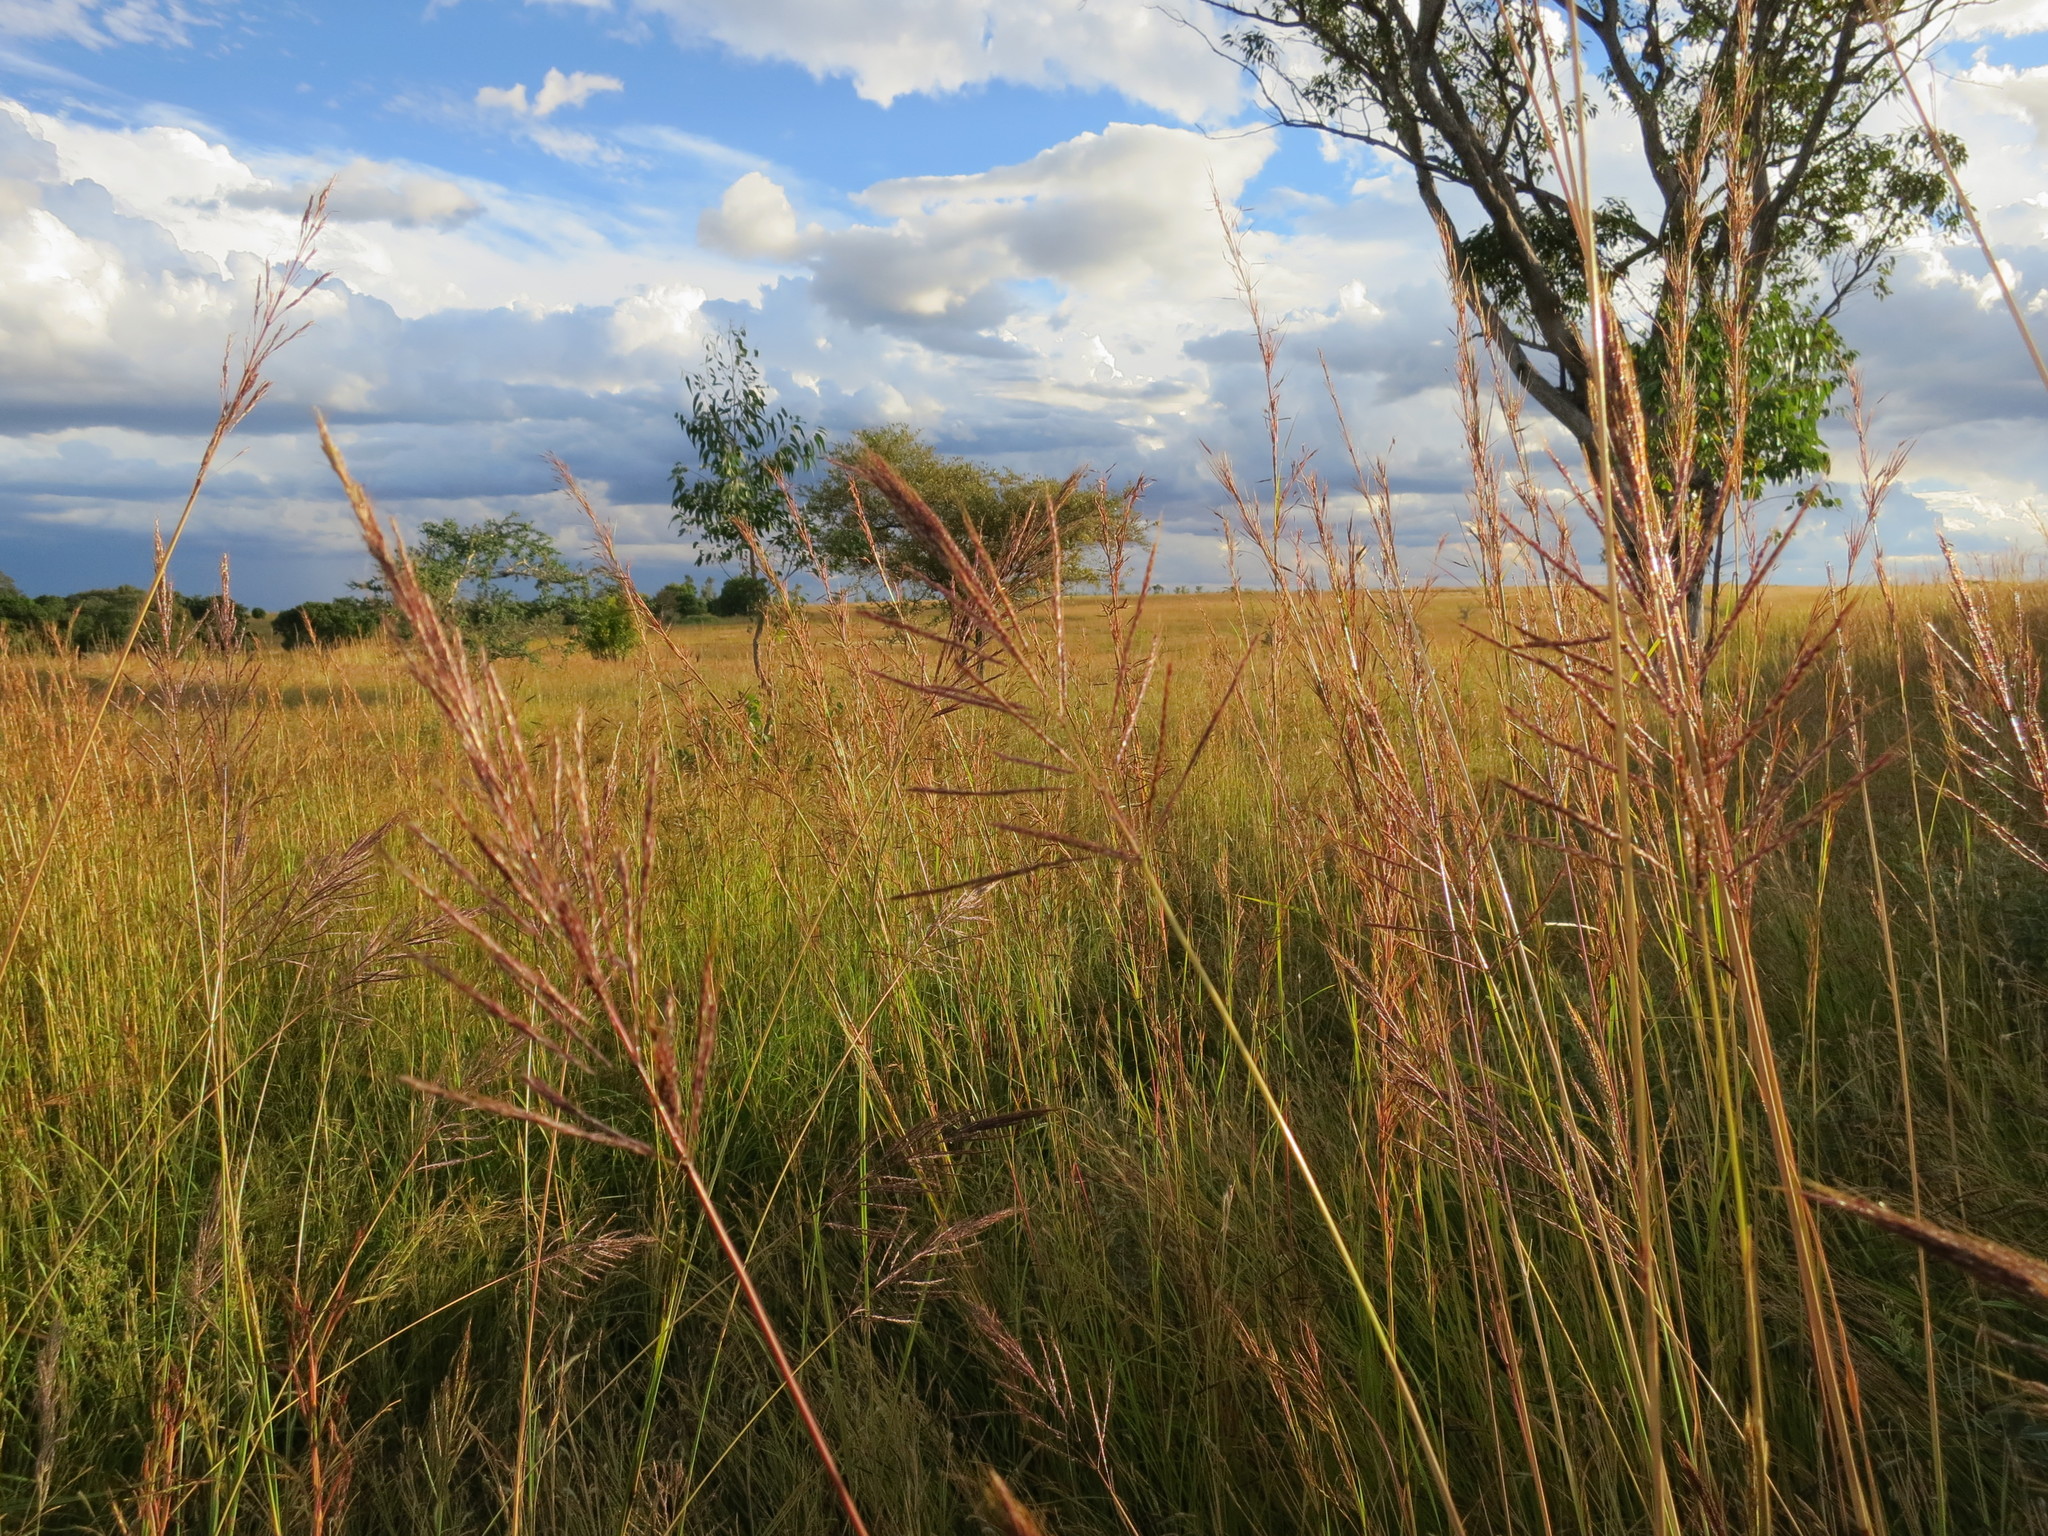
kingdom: Plantae
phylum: Tracheophyta
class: Liliopsida
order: Poales
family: Poaceae
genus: Bothriochloa
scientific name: Bothriochloa bladhii
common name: Caucasian bluestem
